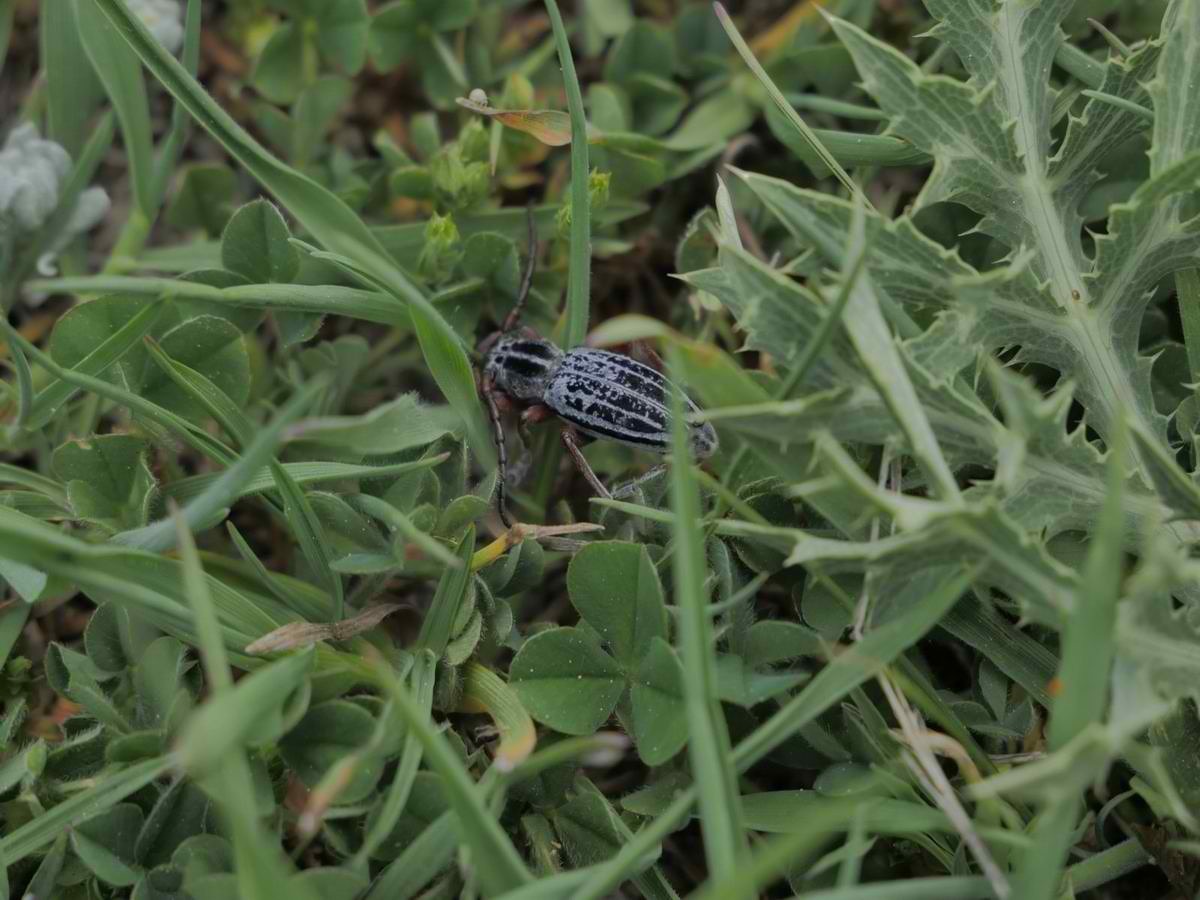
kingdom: Animalia
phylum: Arthropoda
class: Insecta
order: Coleoptera
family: Cerambycidae
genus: Dorcadion
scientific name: Dorcadion cretosum
